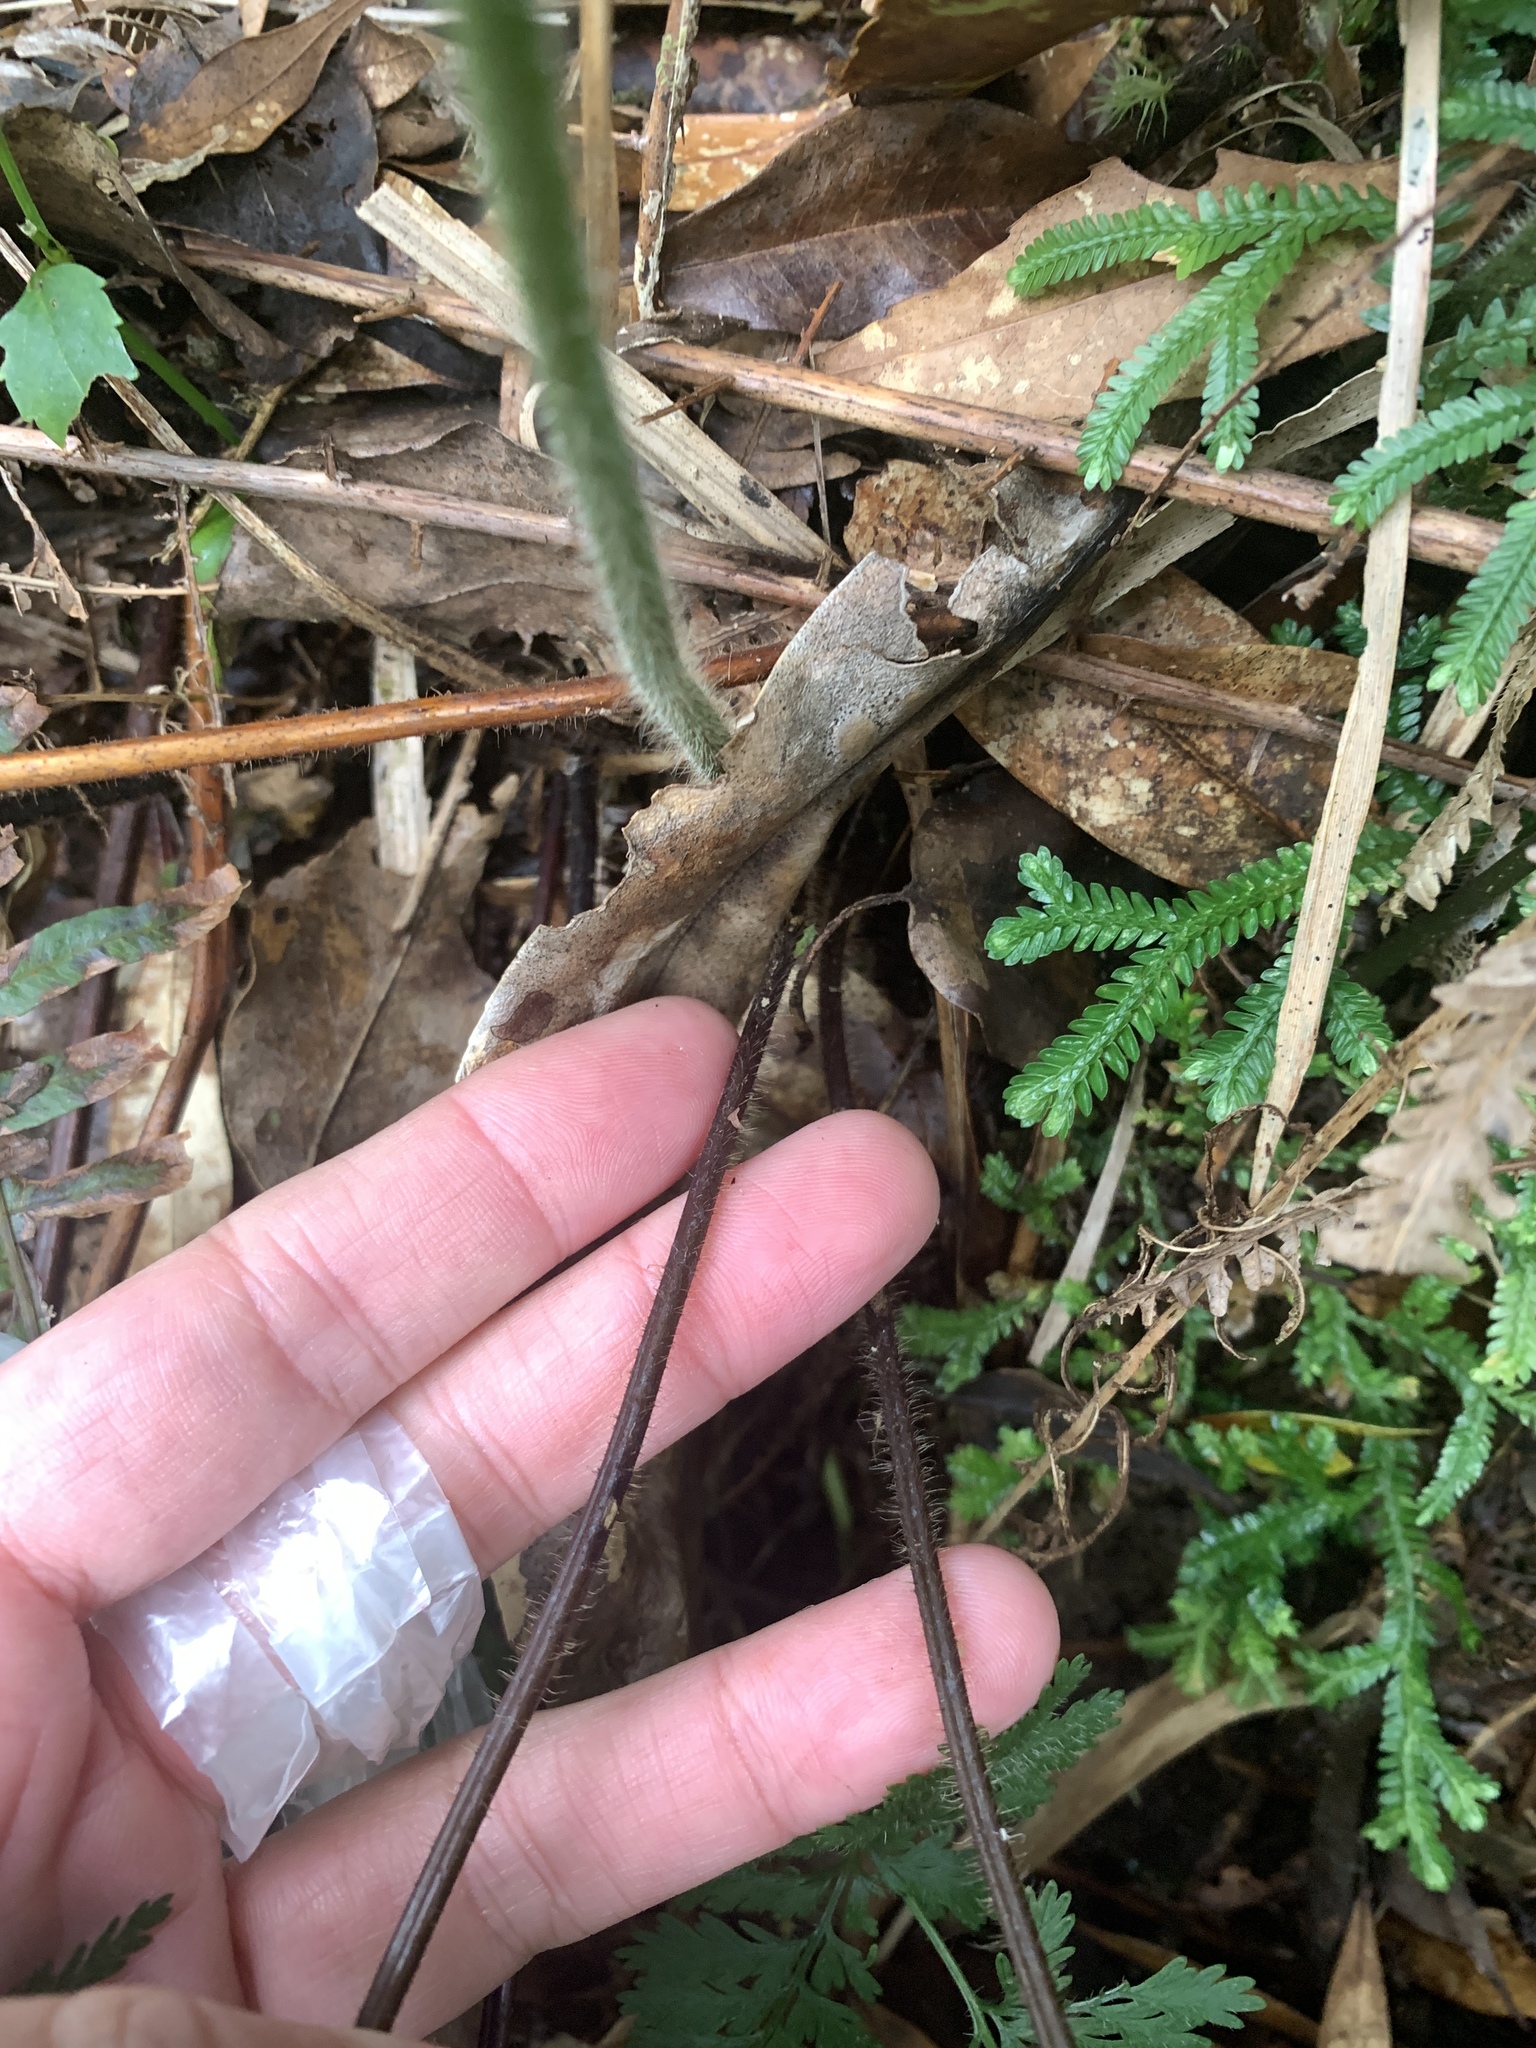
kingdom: Plantae
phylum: Tracheophyta
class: Polypodiopsida
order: Polypodiales
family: Dennstaedtiaceae
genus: Sitobolium
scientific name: Sitobolium zeylanicum
